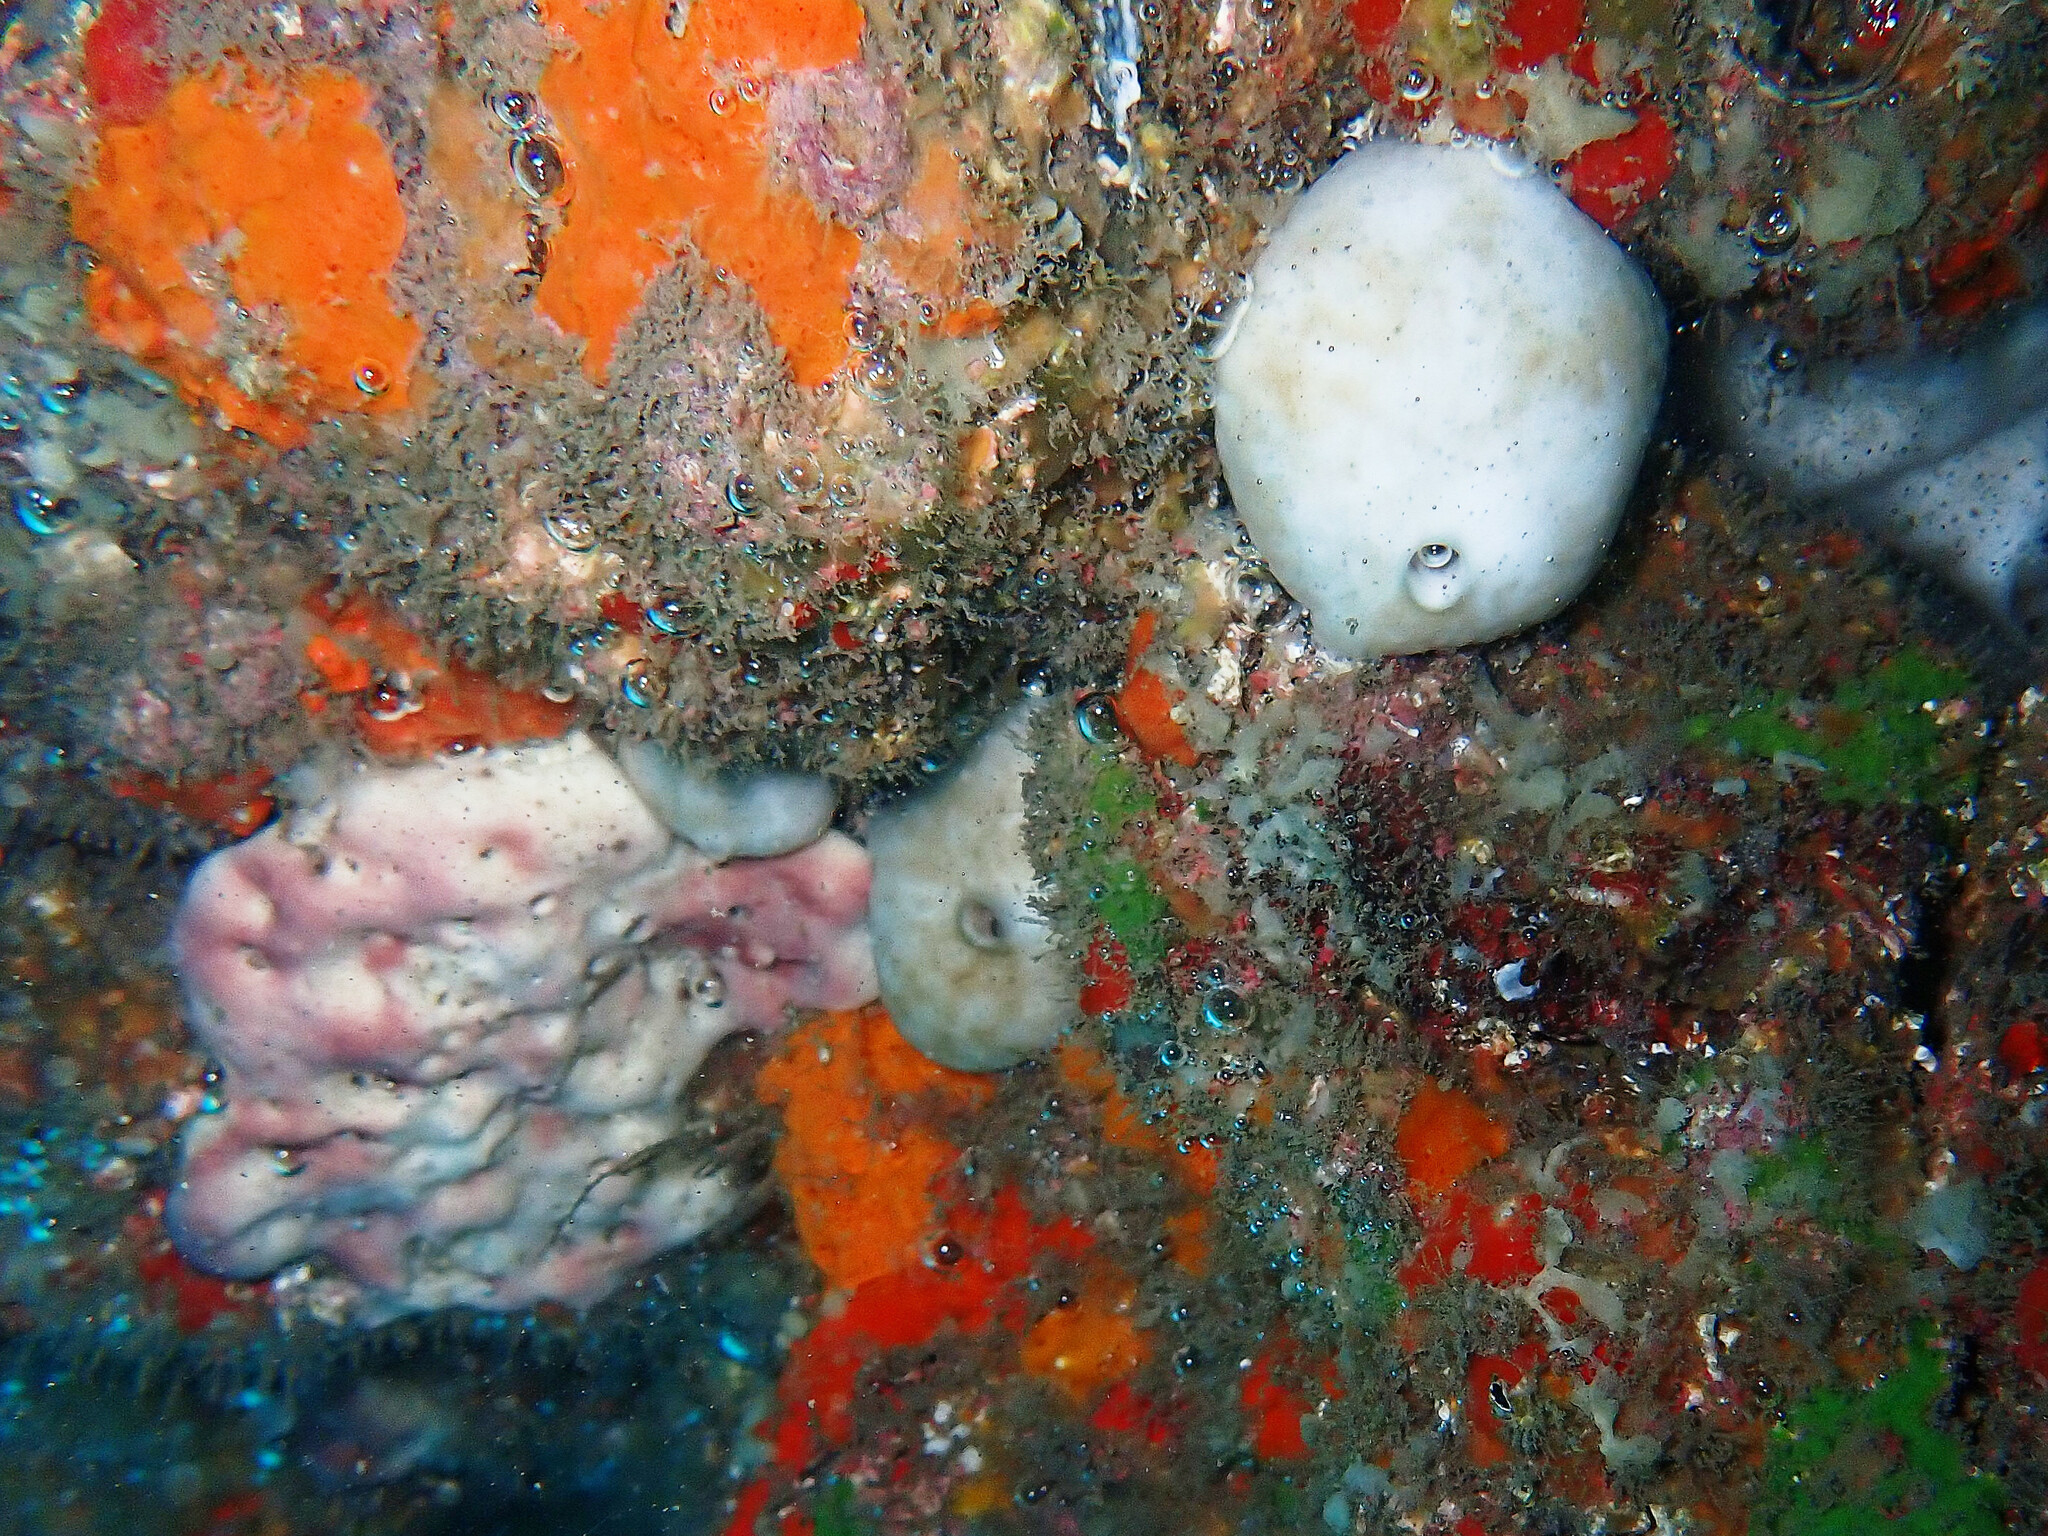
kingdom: Animalia
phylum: Porifera
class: Demospongiae
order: Chondrosiida
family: Chondrosiidae
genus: Chondrosia
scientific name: Chondrosia reniformis
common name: Chicken liver sponge
